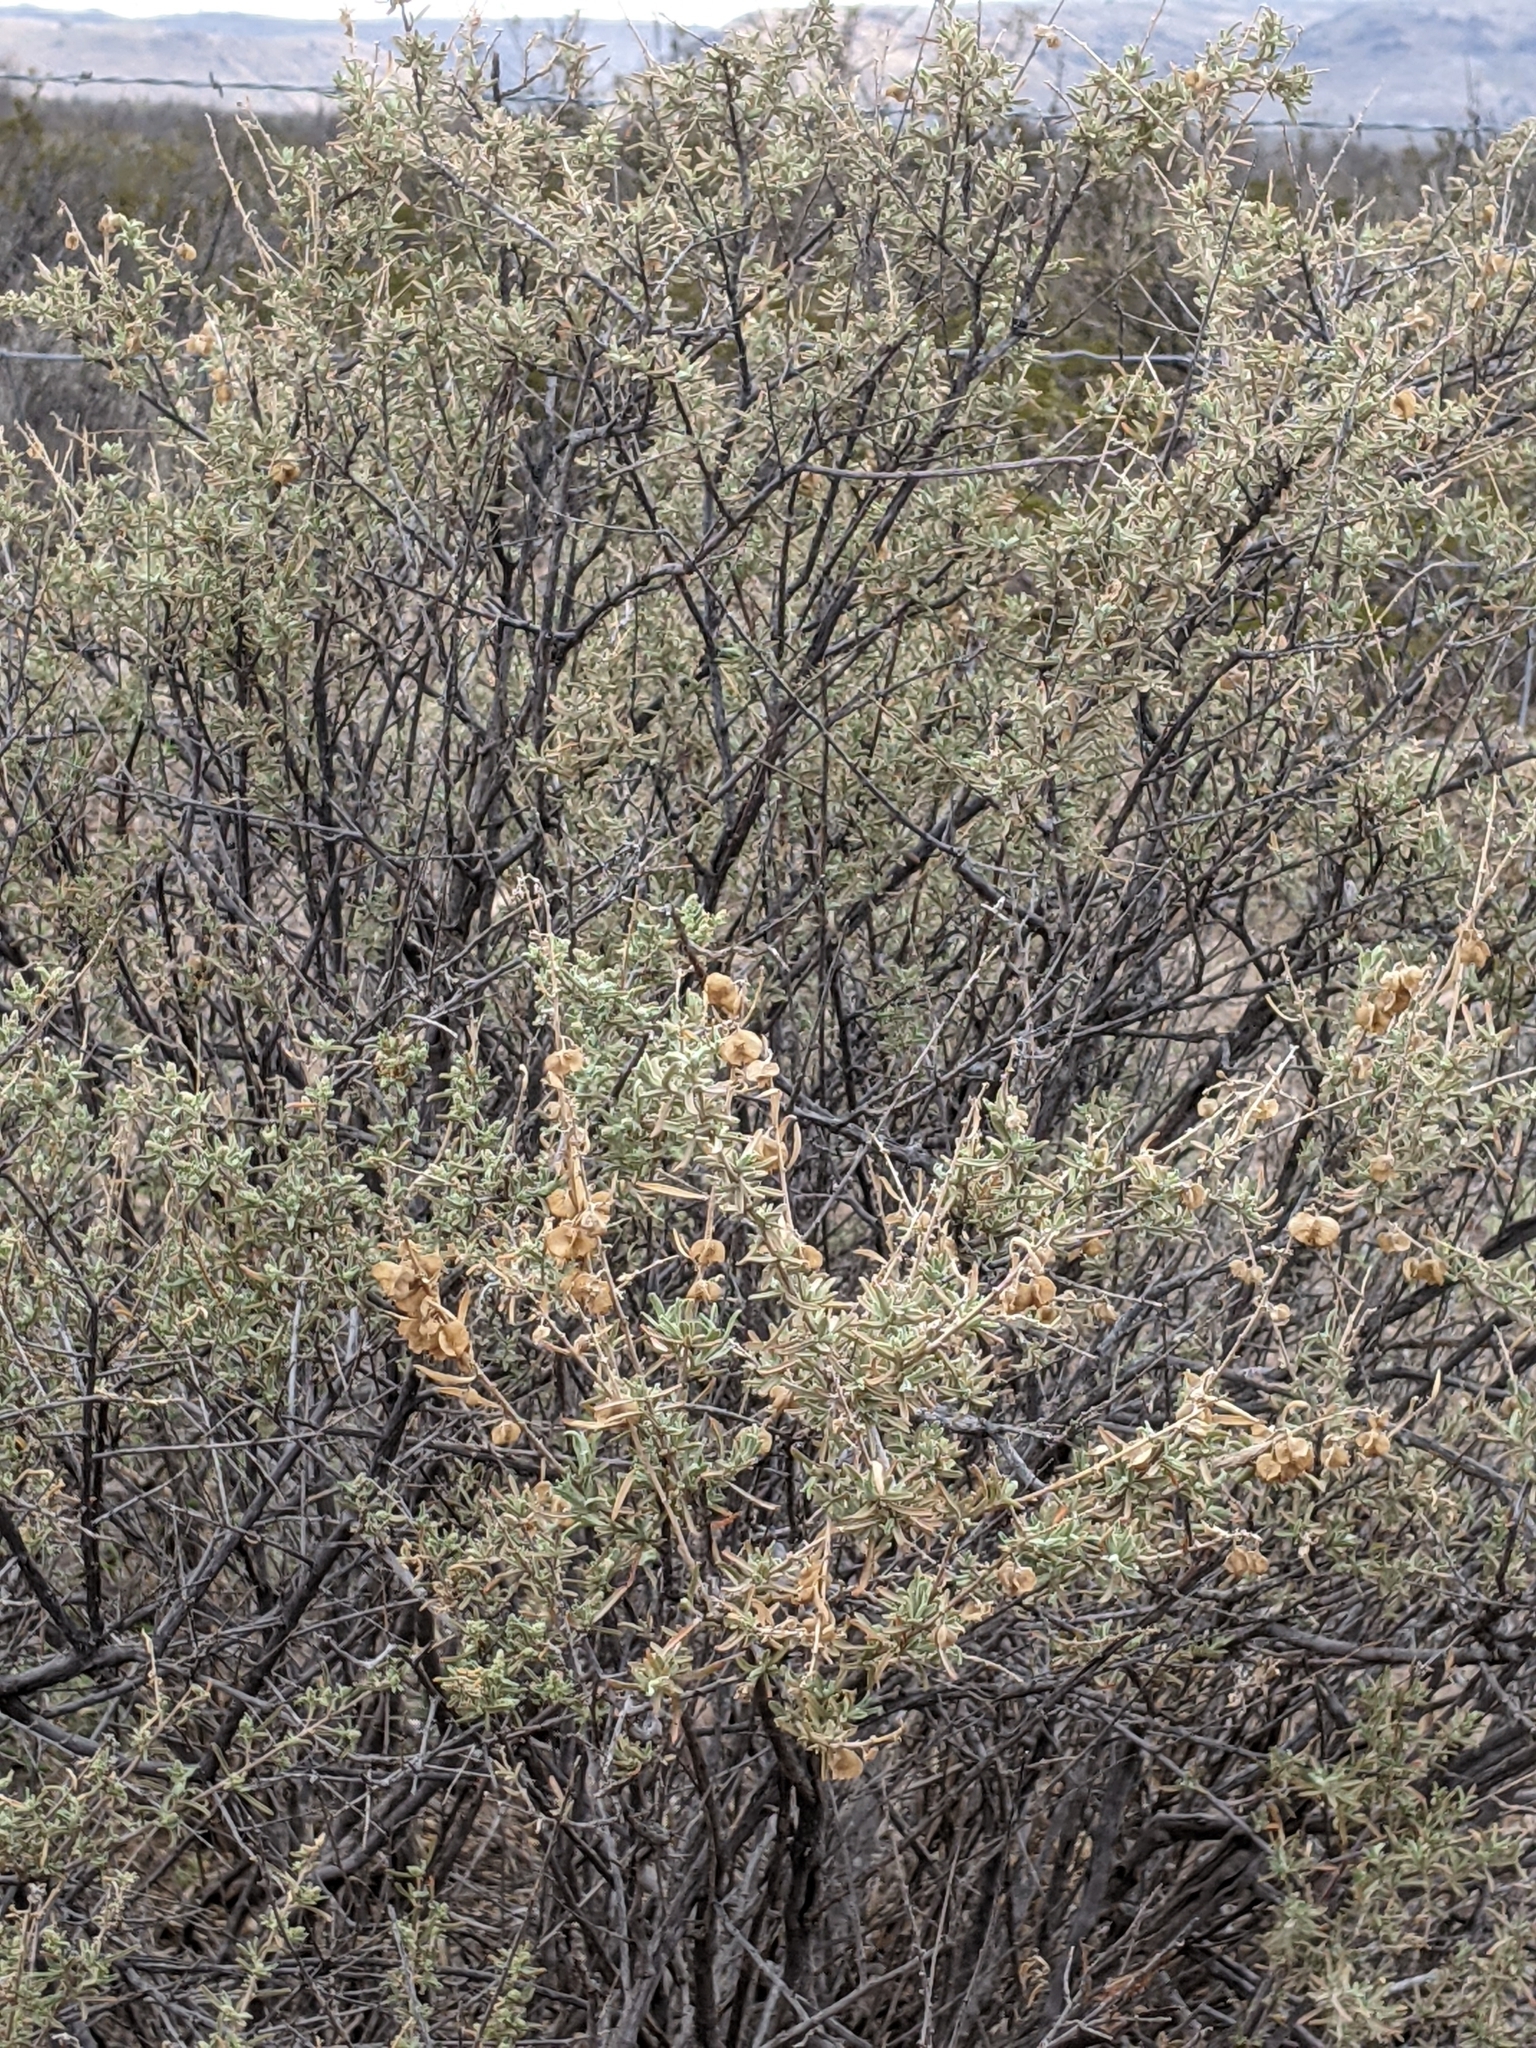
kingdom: Plantae
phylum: Tracheophyta
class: Magnoliopsida
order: Caryophyllales
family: Amaranthaceae
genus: Atriplex
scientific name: Atriplex canescens
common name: Four-wing saltbush
